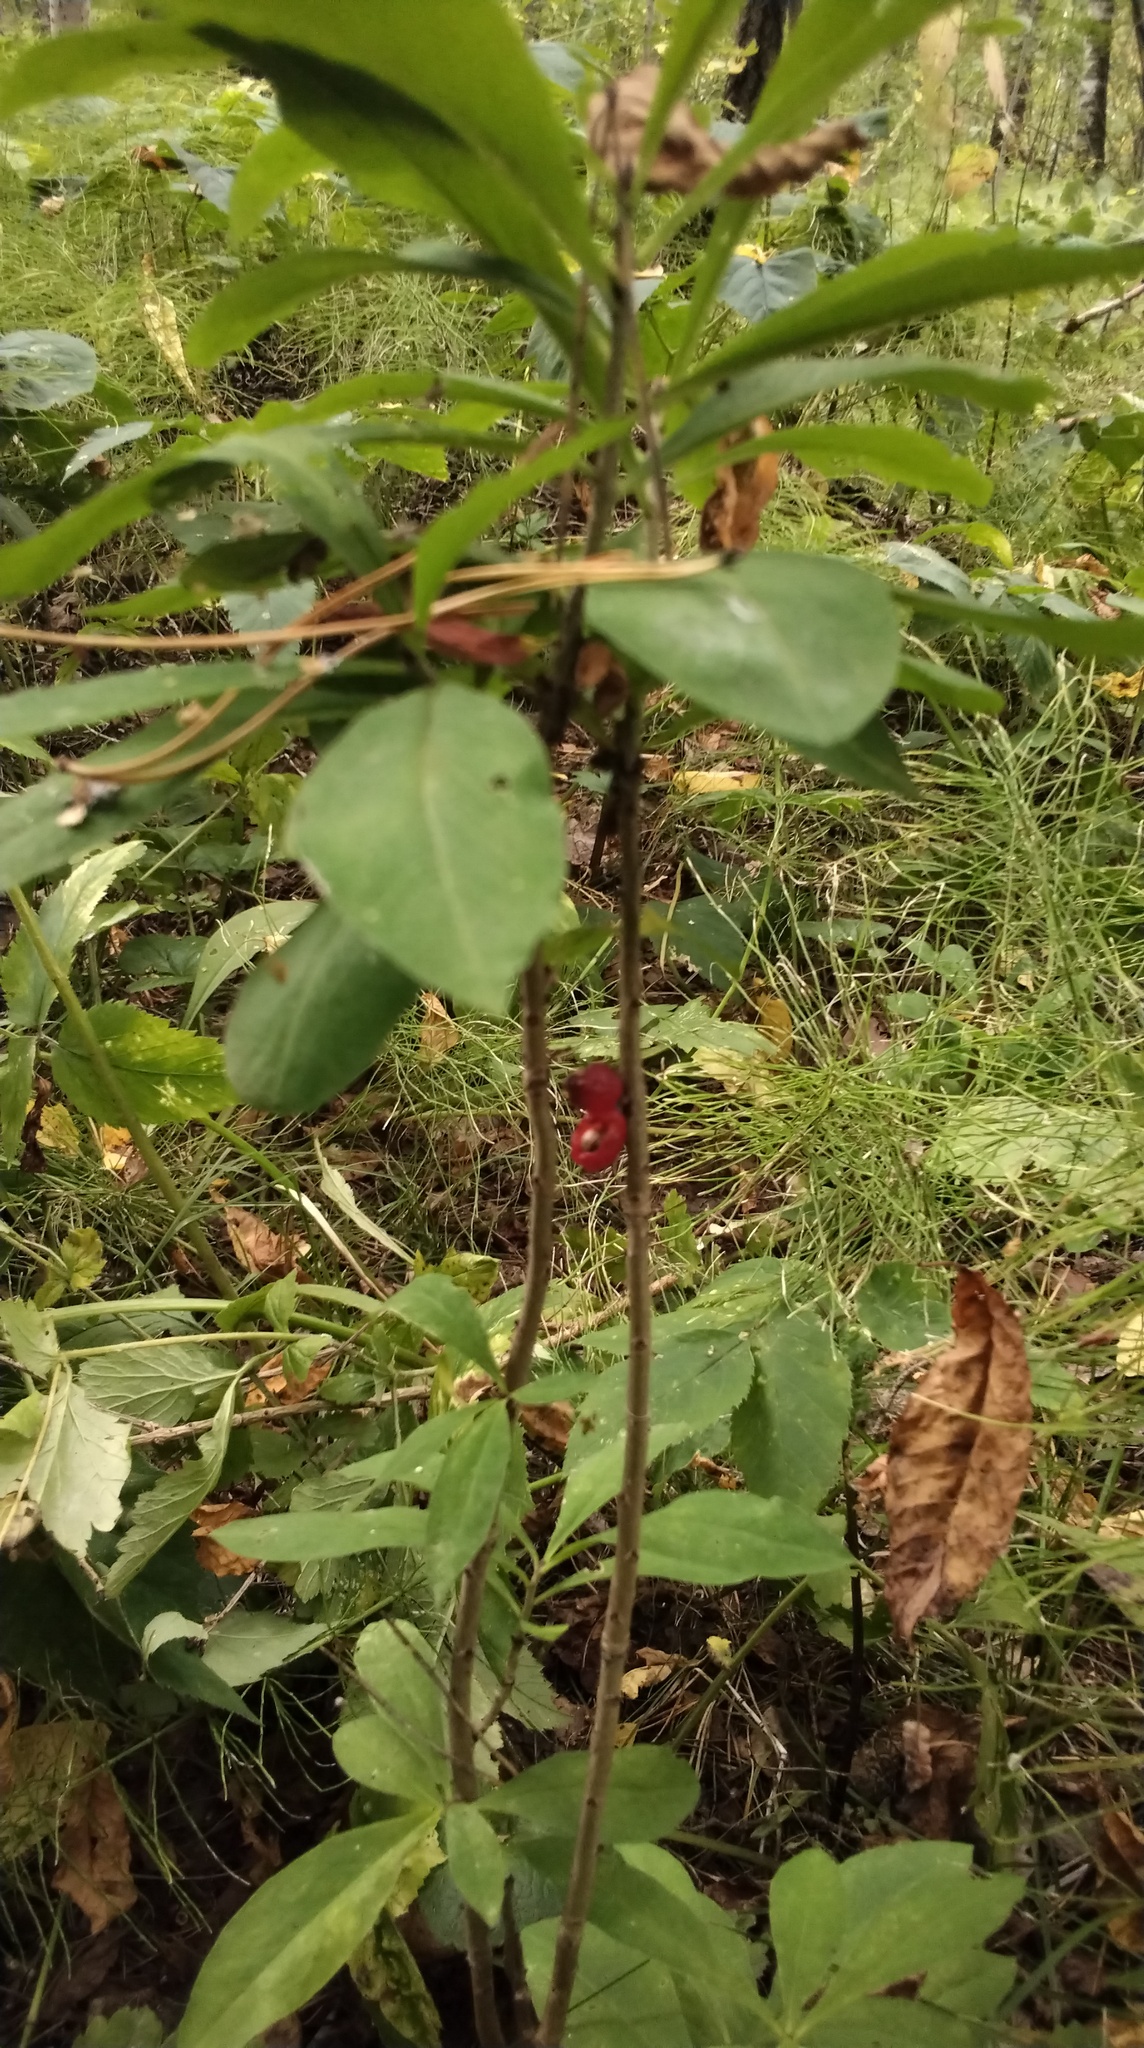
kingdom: Plantae
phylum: Tracheophyta
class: Magnoliopsida
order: Malvales
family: Thymelaeaceae
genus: Daphne
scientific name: Daphne mezereum
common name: Mezereon
